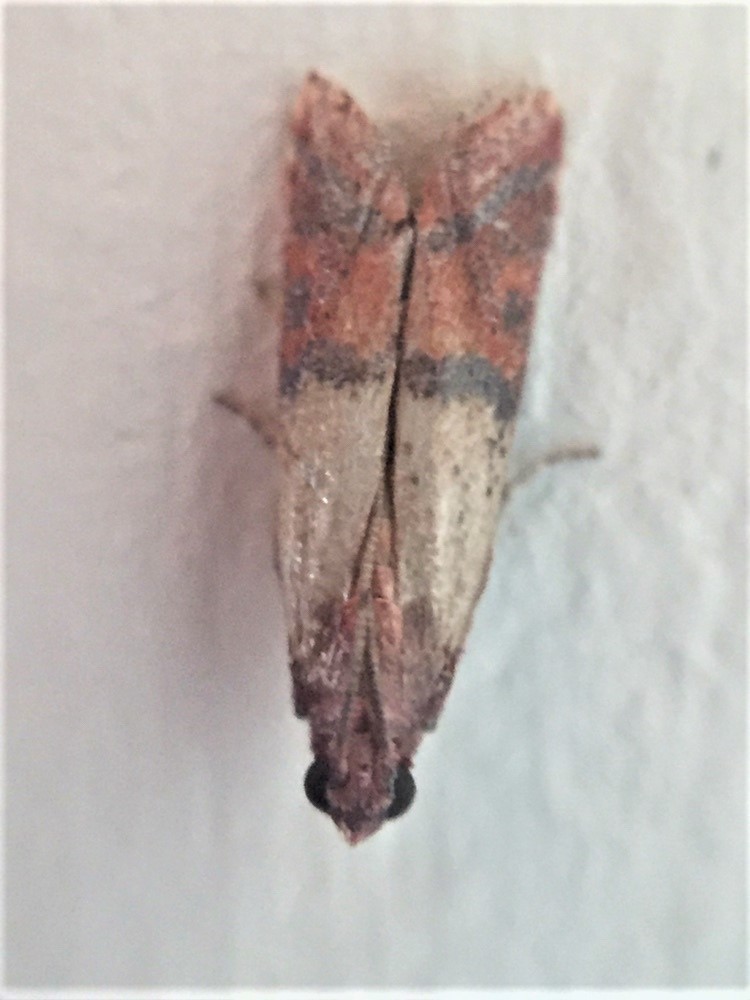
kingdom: Animalia
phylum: Arthropoda
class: Insecta
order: Lepidoptera
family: Pyralidae
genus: Plodia
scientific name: Plodia interpunctella
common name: Indian meal moth
